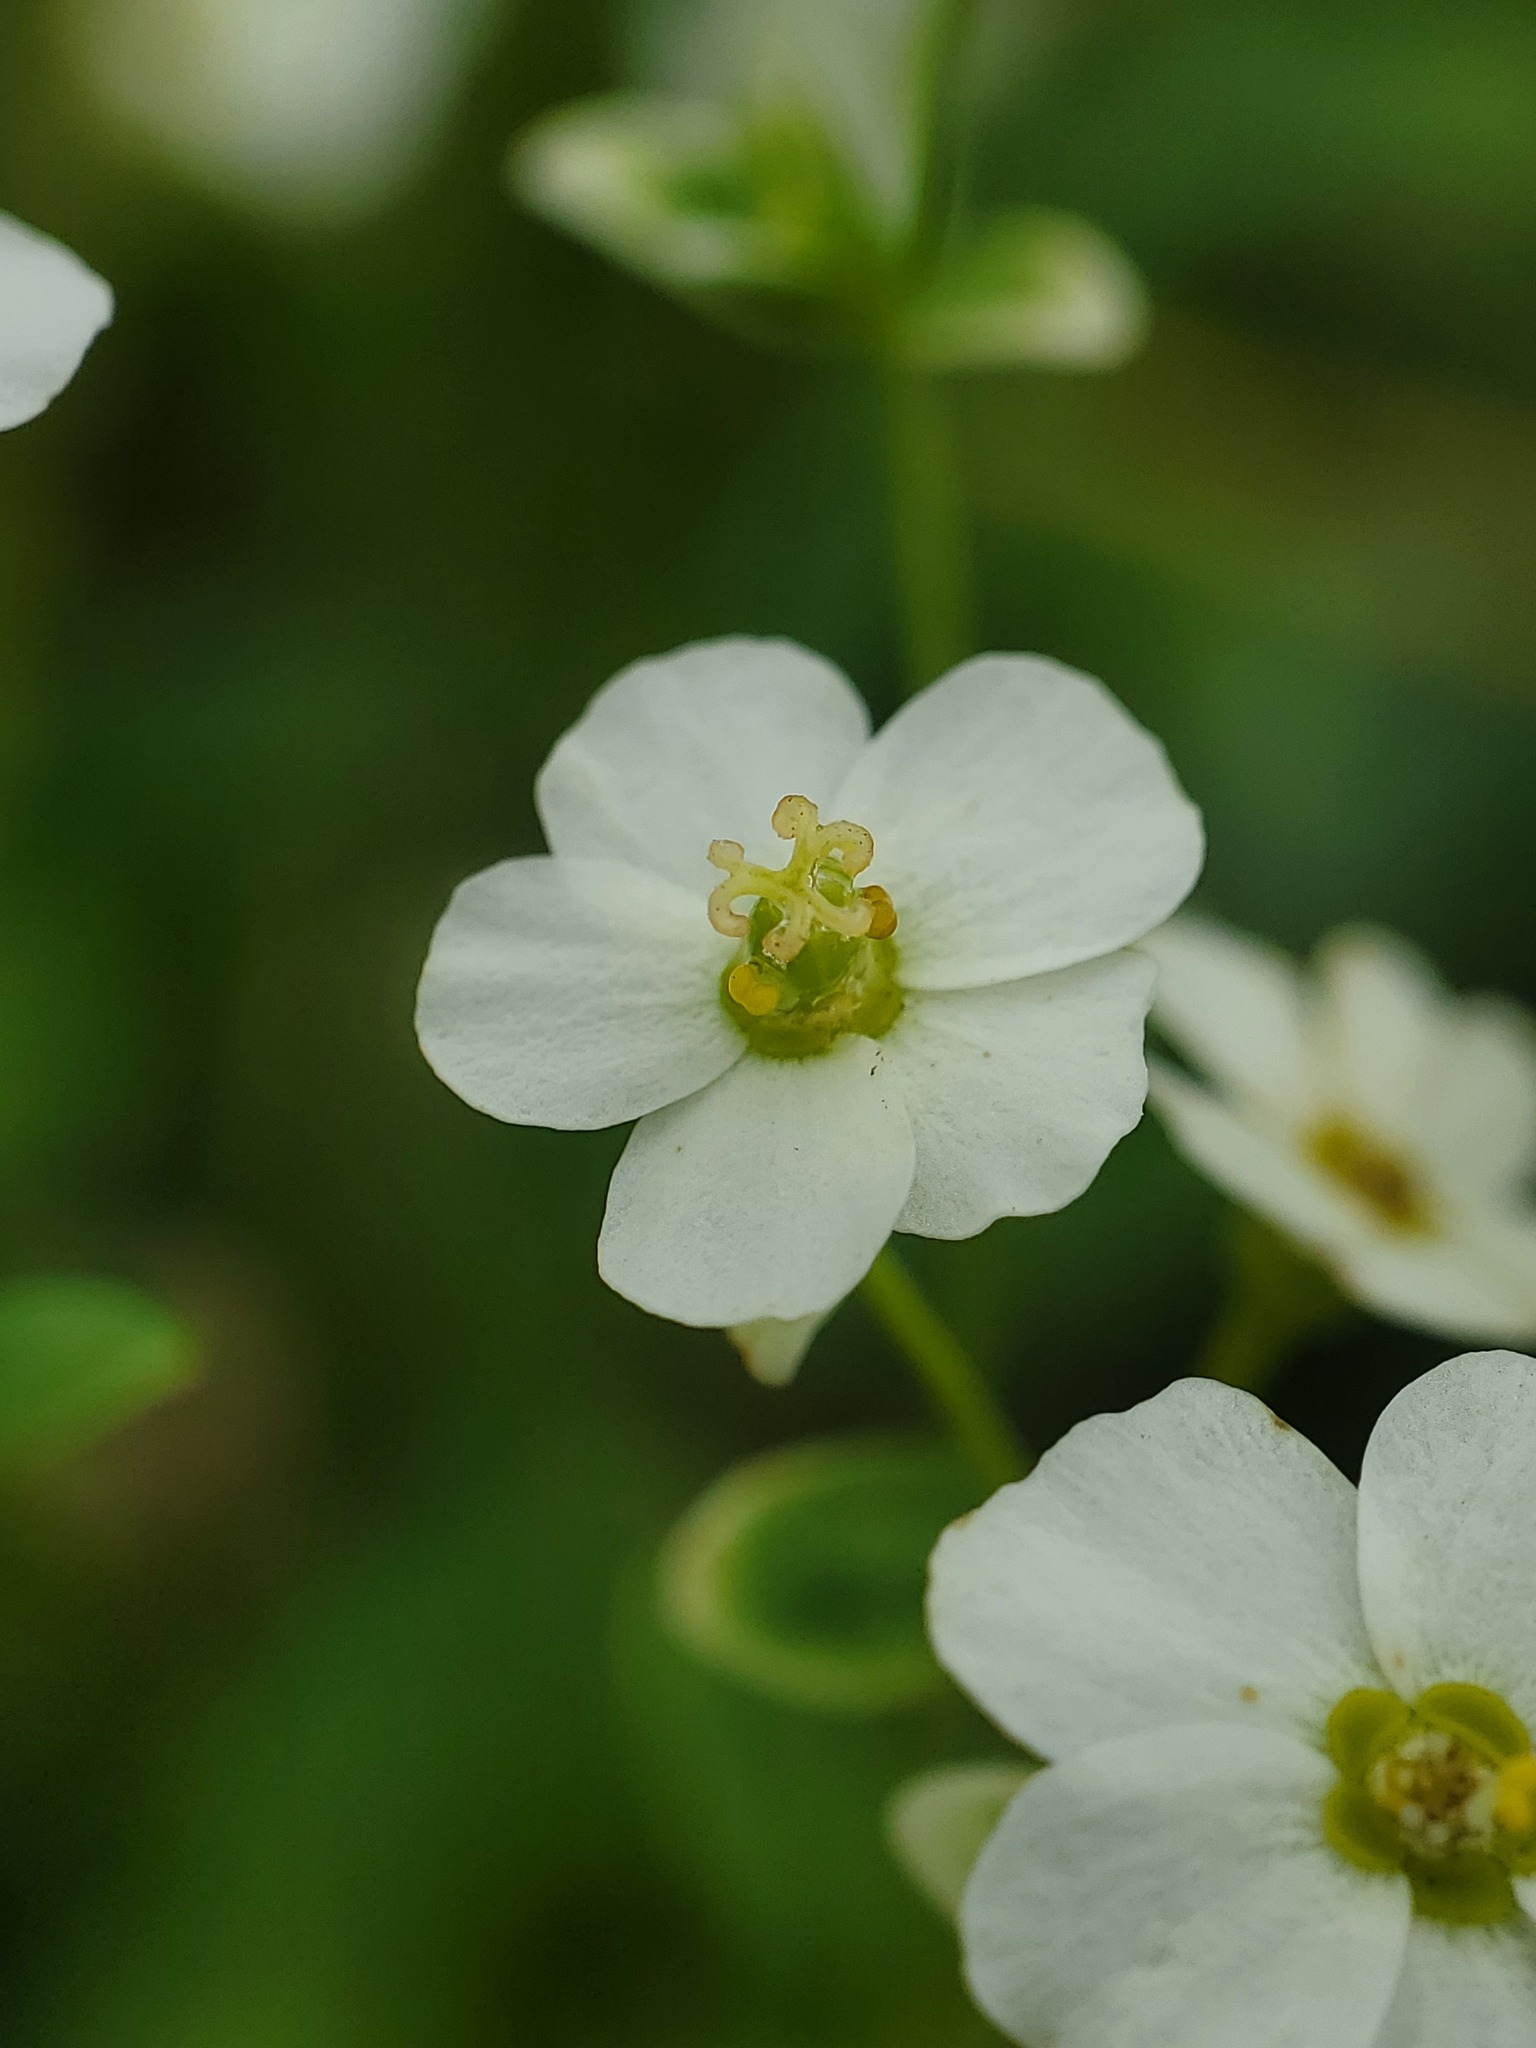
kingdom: Plantae
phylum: Tracheophyta
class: Magnoliopsida
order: Malpighiales
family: Euphorbiaceae
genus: Euphorbia
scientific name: Euphorbia corollata
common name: Flowering spurge
